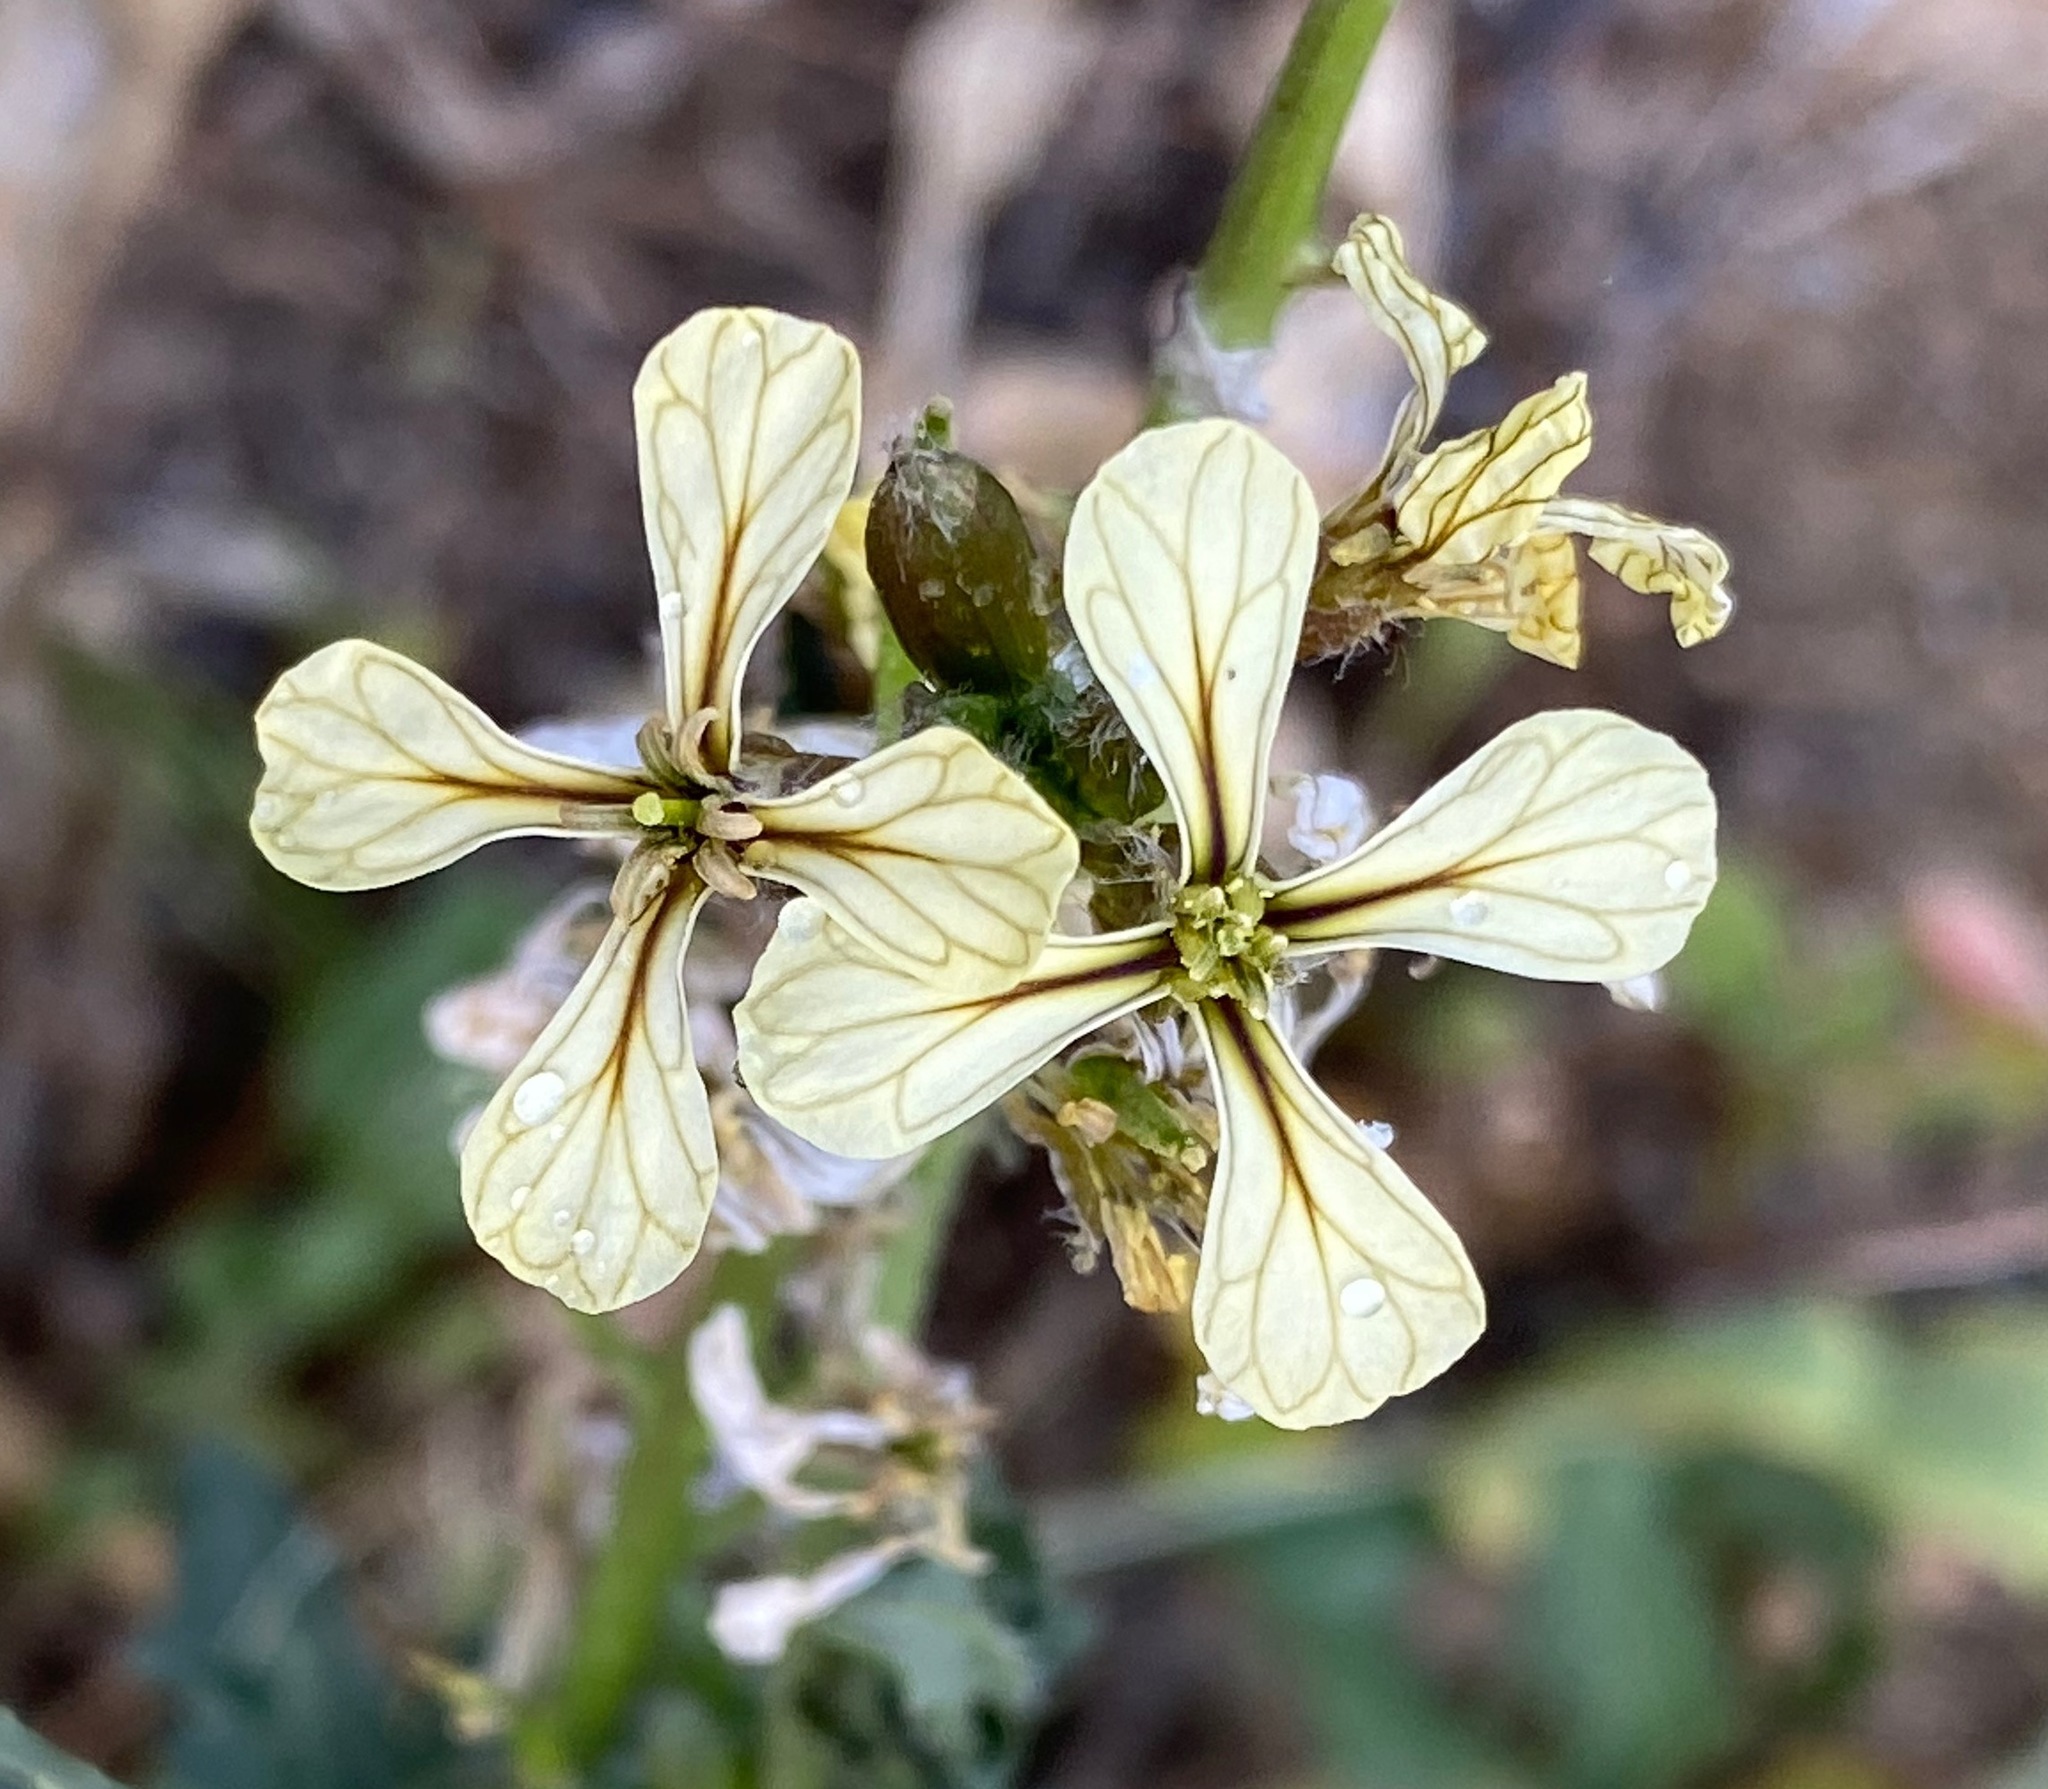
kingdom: Plantae
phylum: Tracheophyta
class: Magnoliopsida
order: Brassicales
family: Brassicaceae
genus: Eruca
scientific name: Eruca vesicaria
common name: Garden rocket
